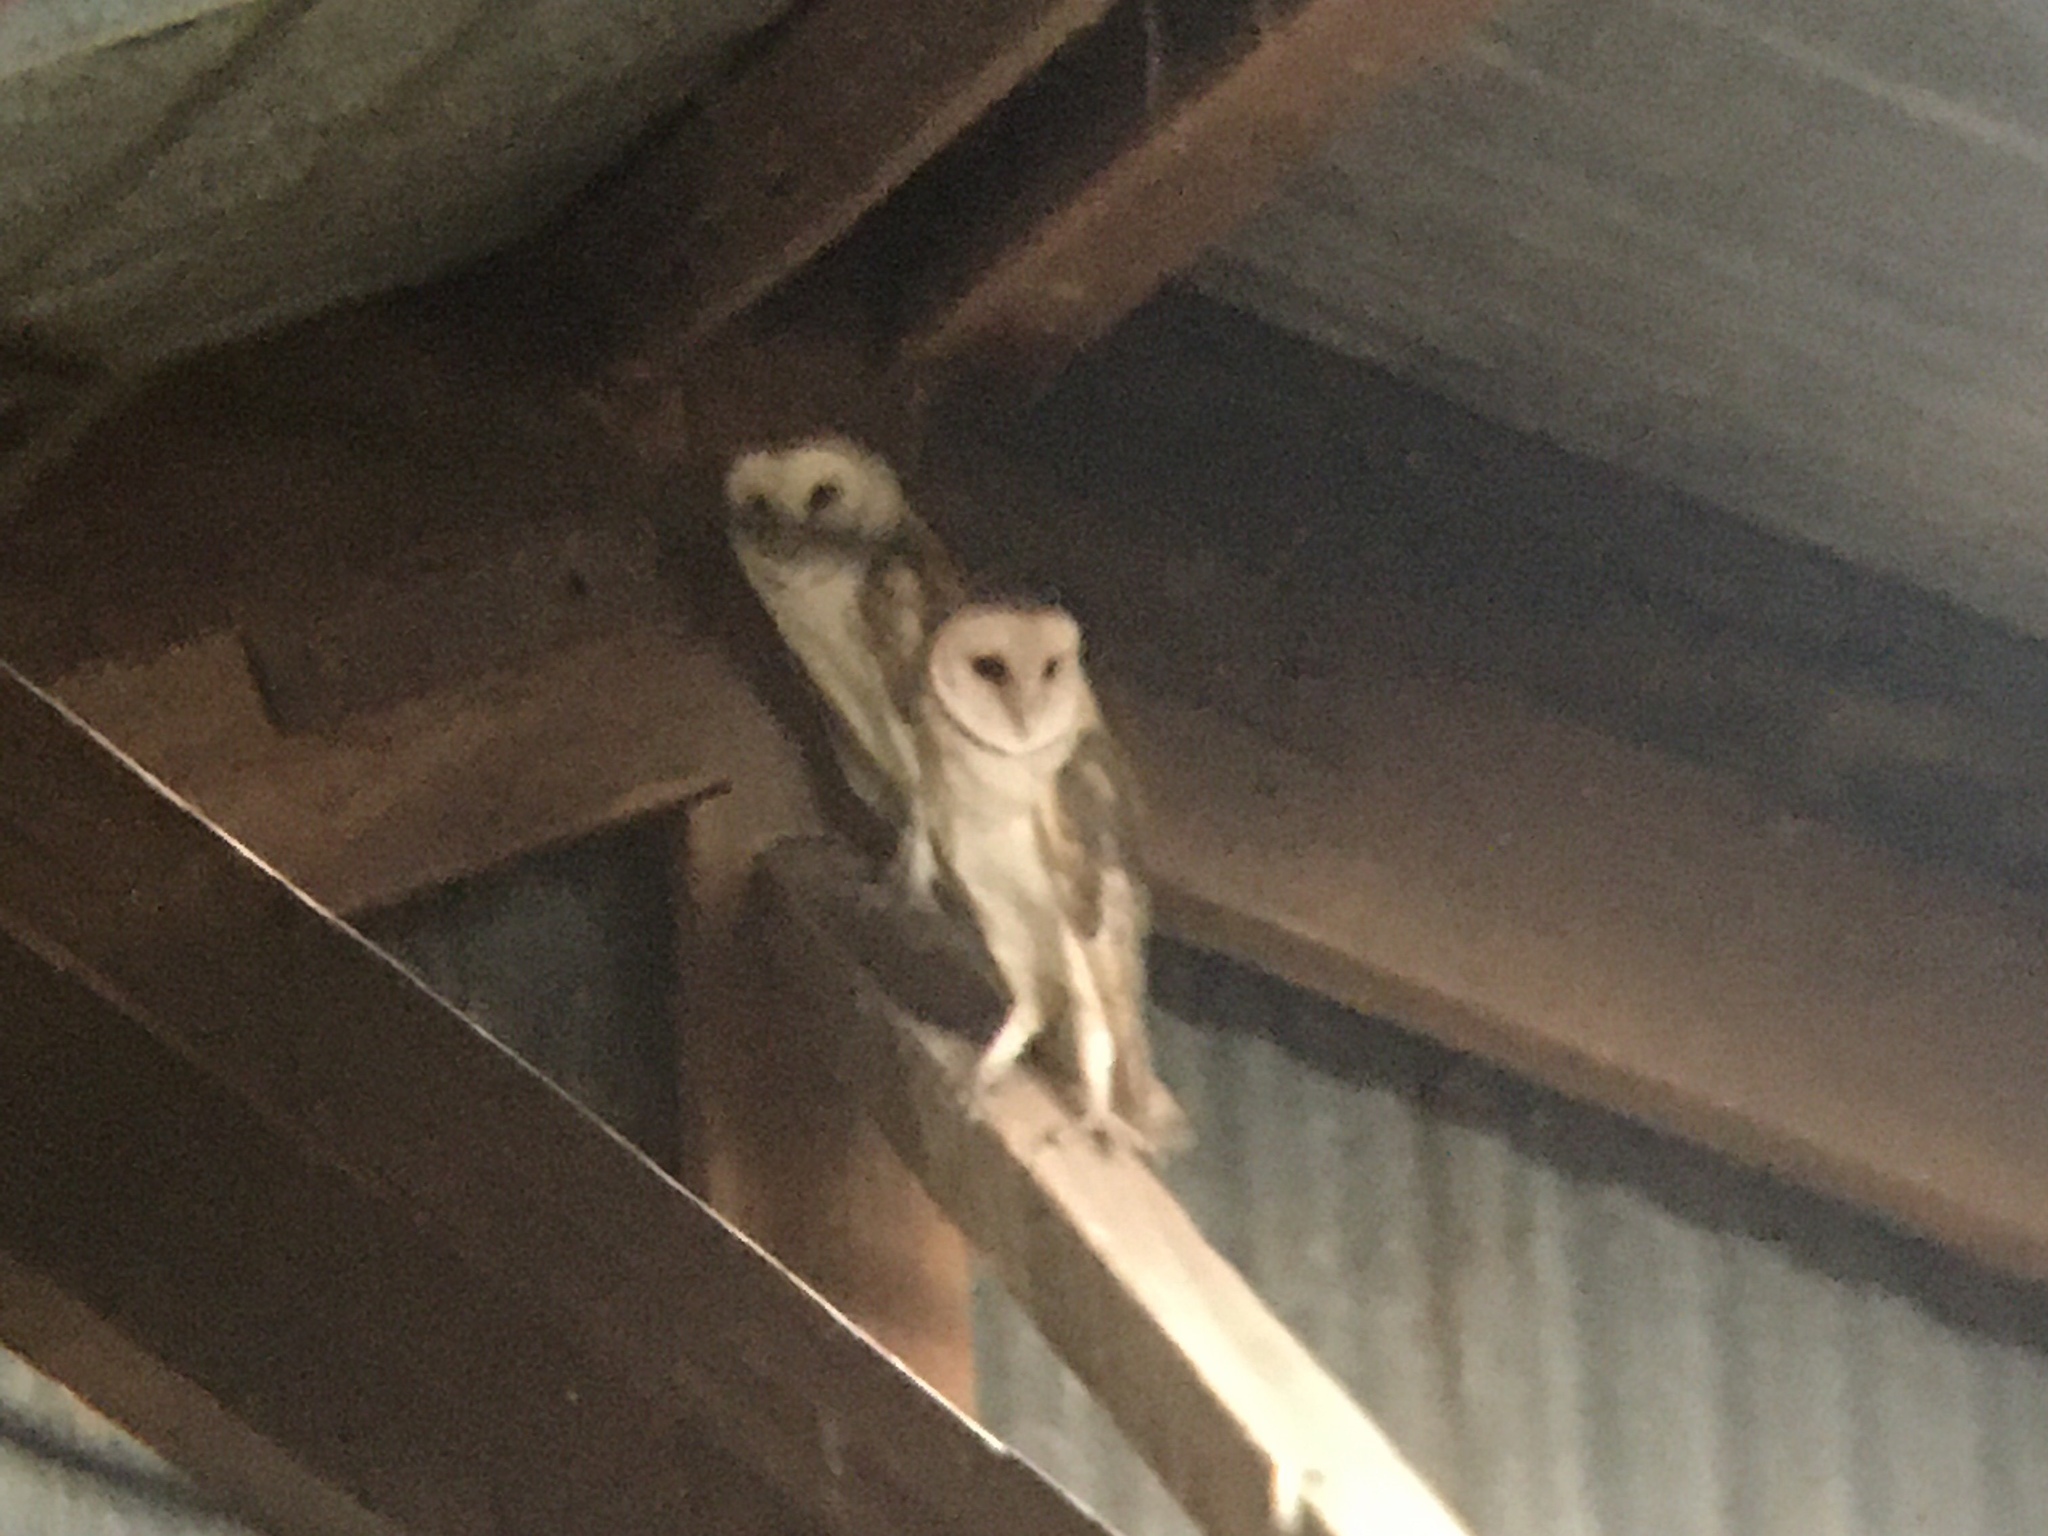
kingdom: Animalia
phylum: Chordata
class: Aves
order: Strigiformes
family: Tytonidae
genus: Tyto
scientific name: Tyto furcata
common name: American barn owl
